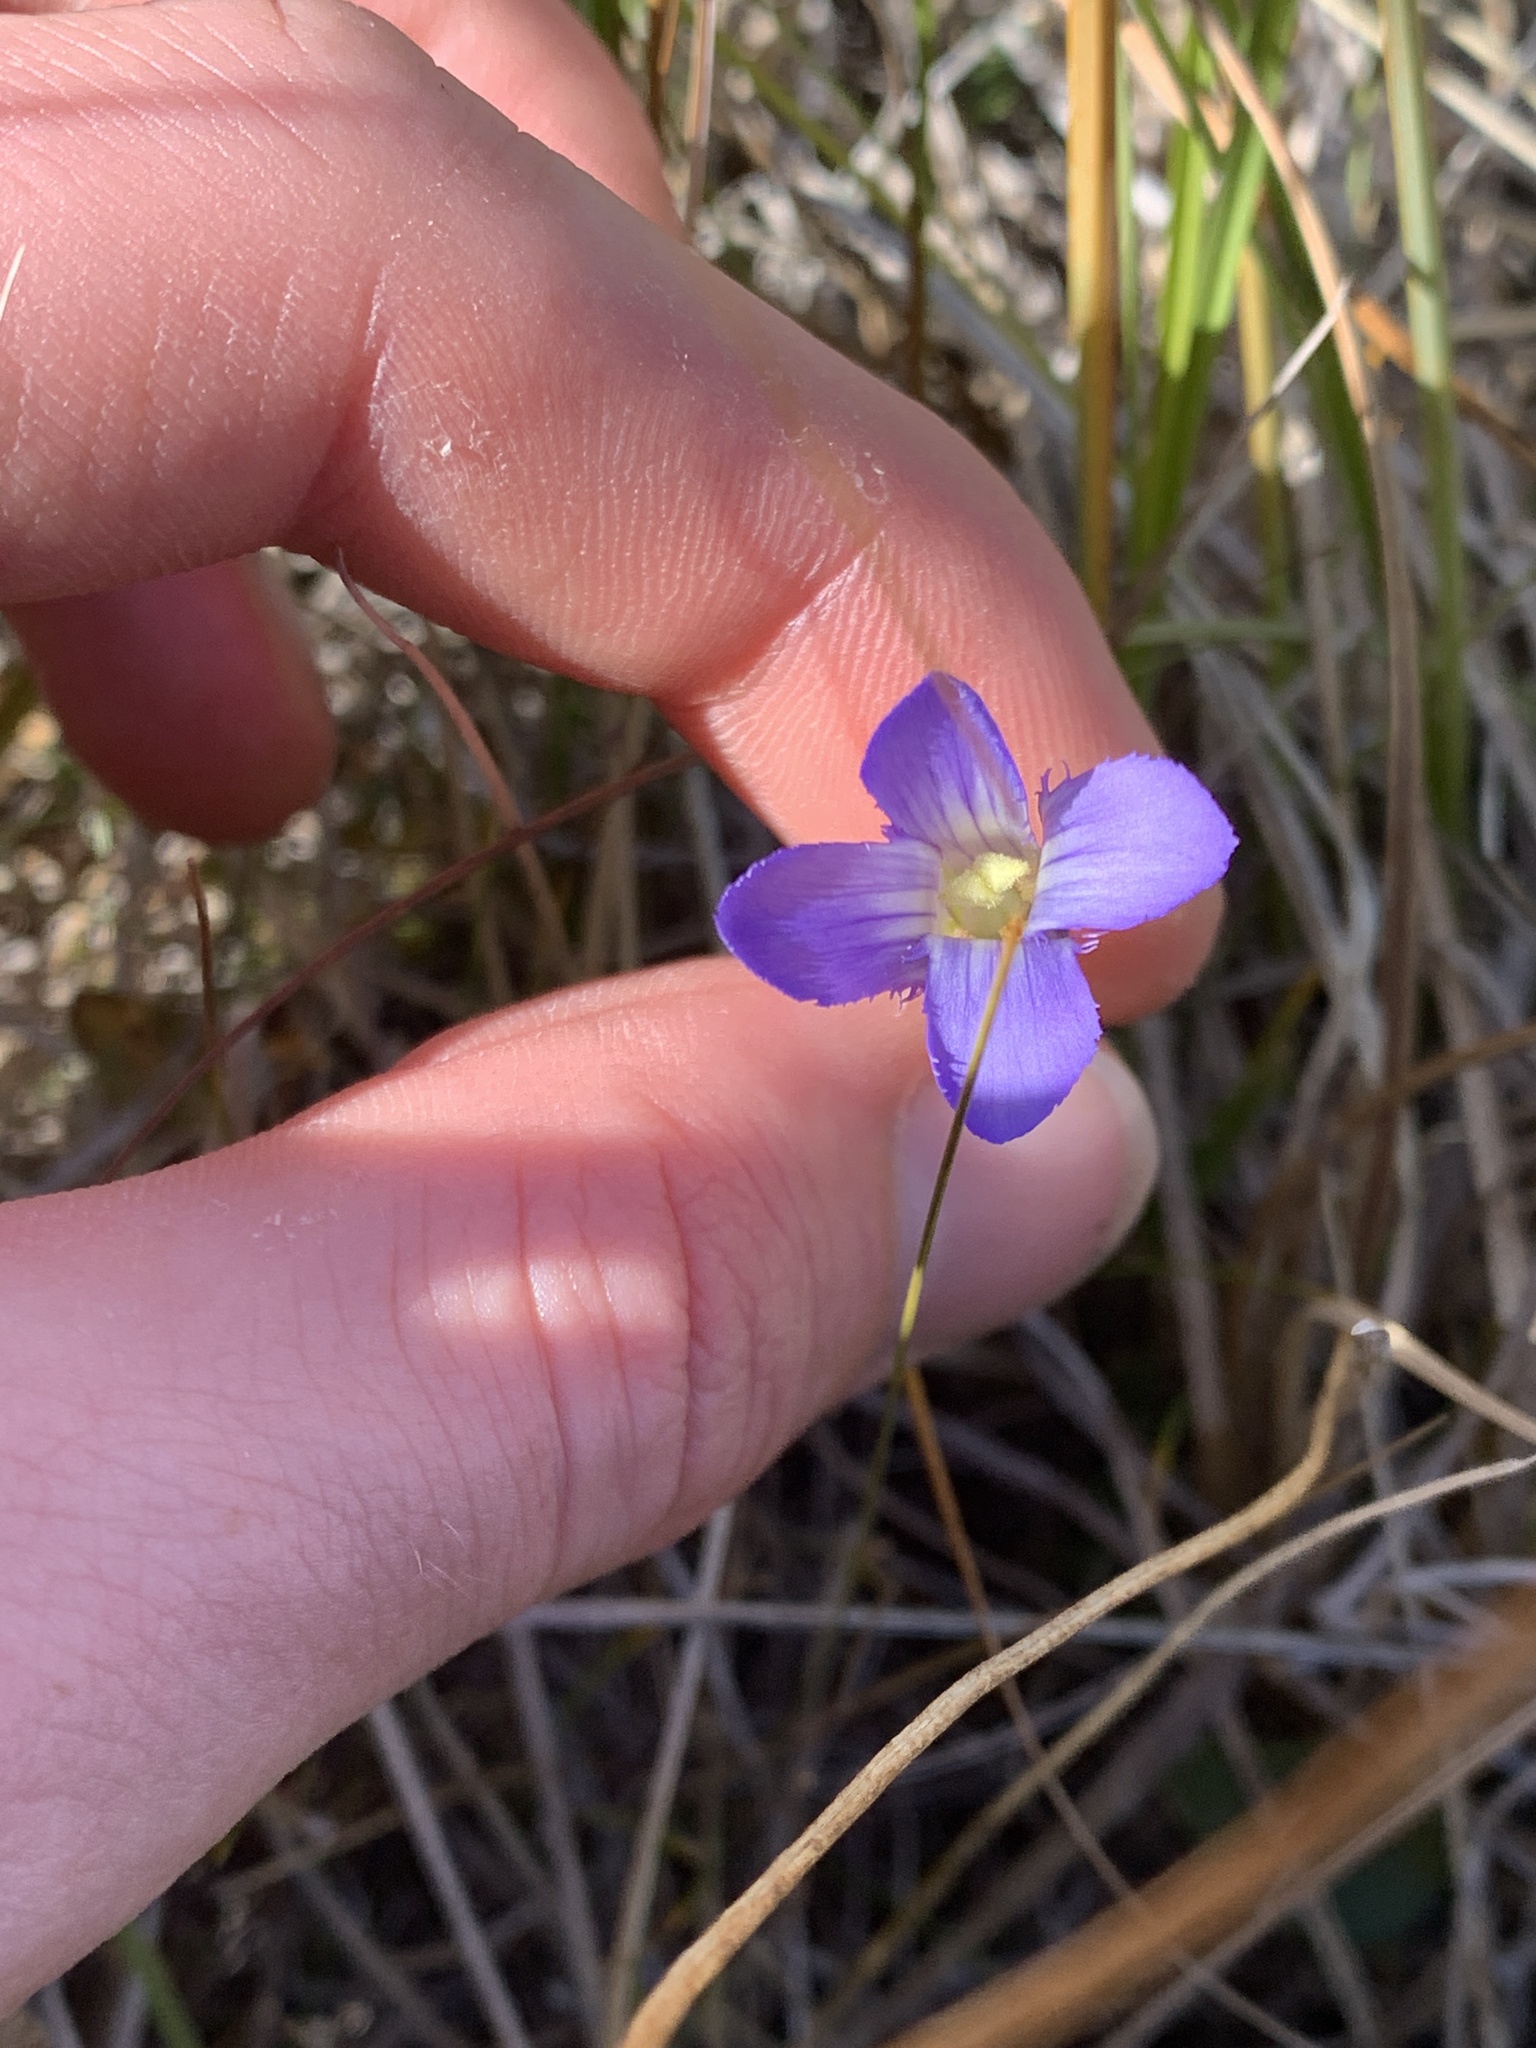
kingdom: Plantae
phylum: Tracheophyta
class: Magnoliopsida
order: Gentianales
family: Gentianaceae
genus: Gentianopsis
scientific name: Gentianopsis virgata
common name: Lesser fringed-gentian
